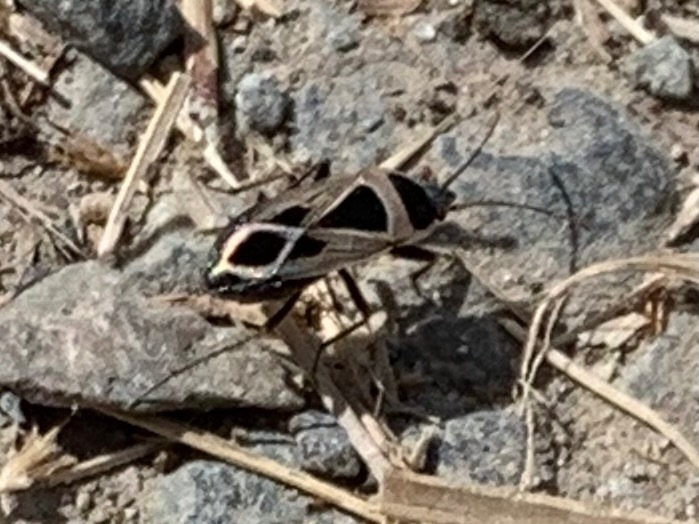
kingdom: Animalia
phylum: Arthropoda
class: Insecta
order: Hemiptera
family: Rhyparochromidae
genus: Xanthochilus
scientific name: Xanthochilus saturnius
